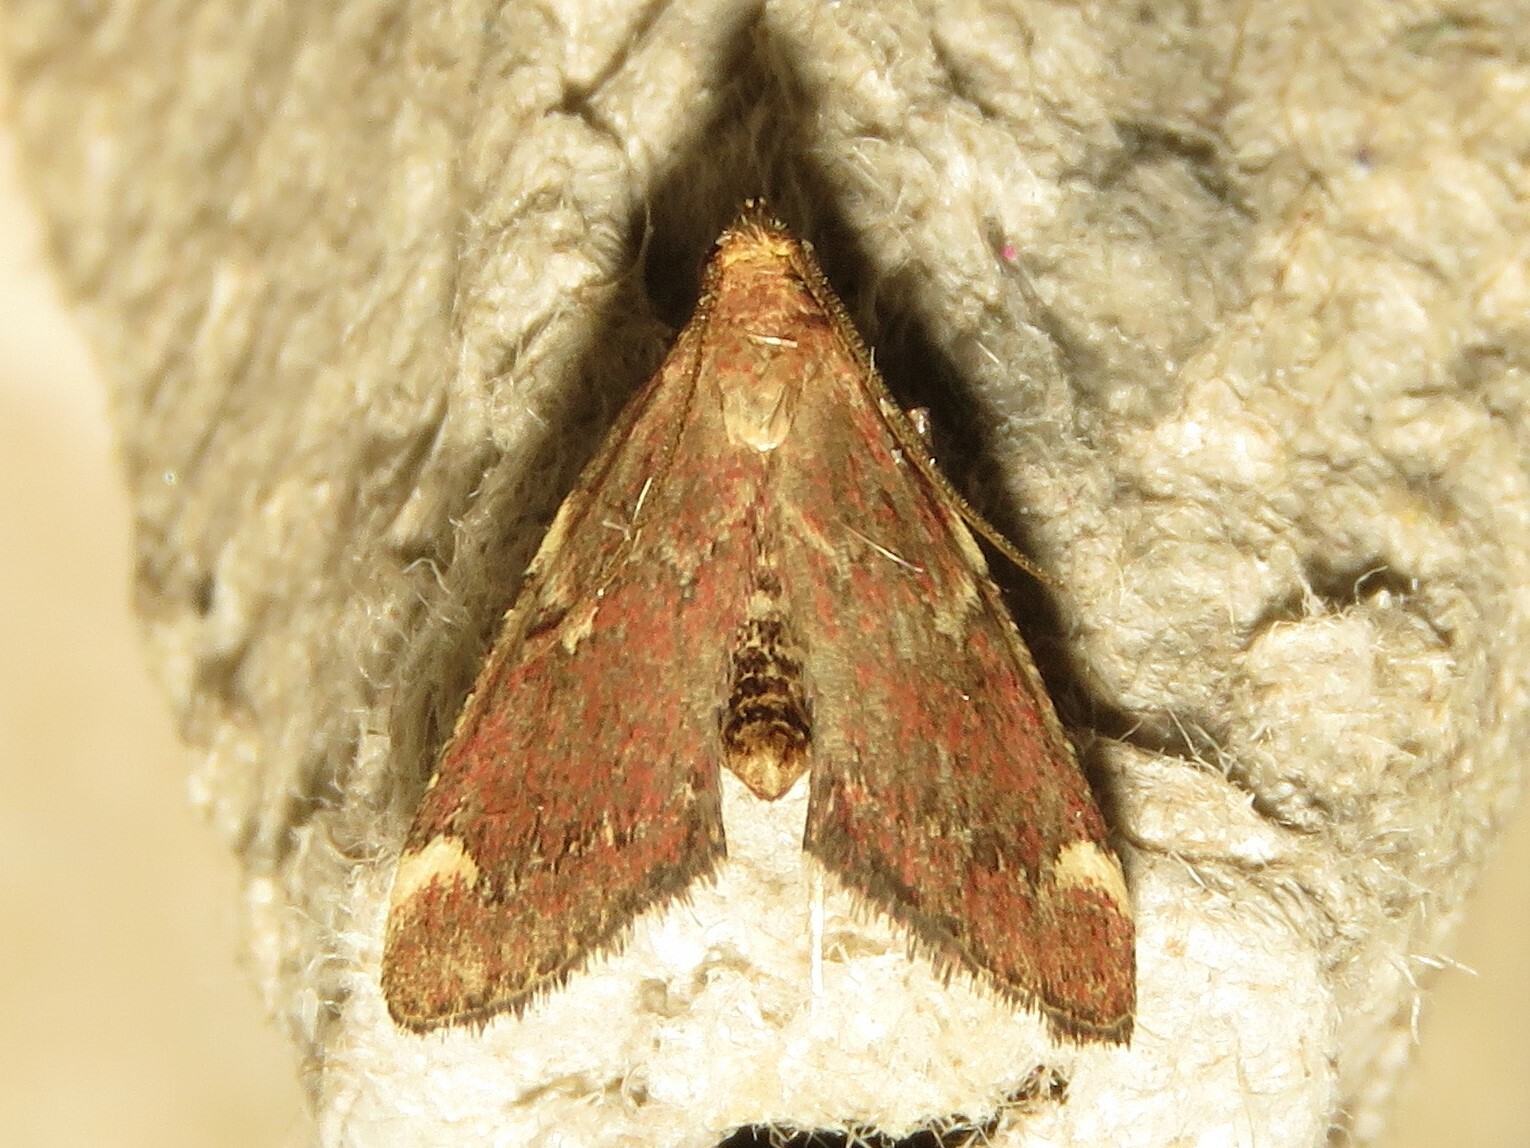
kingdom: Animalia
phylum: Arthropoda
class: Insecta
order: Lepidoptera
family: Pyralidae
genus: Hypsopygia
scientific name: Hypsopygia intermedialis
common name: Red-shawled moth
